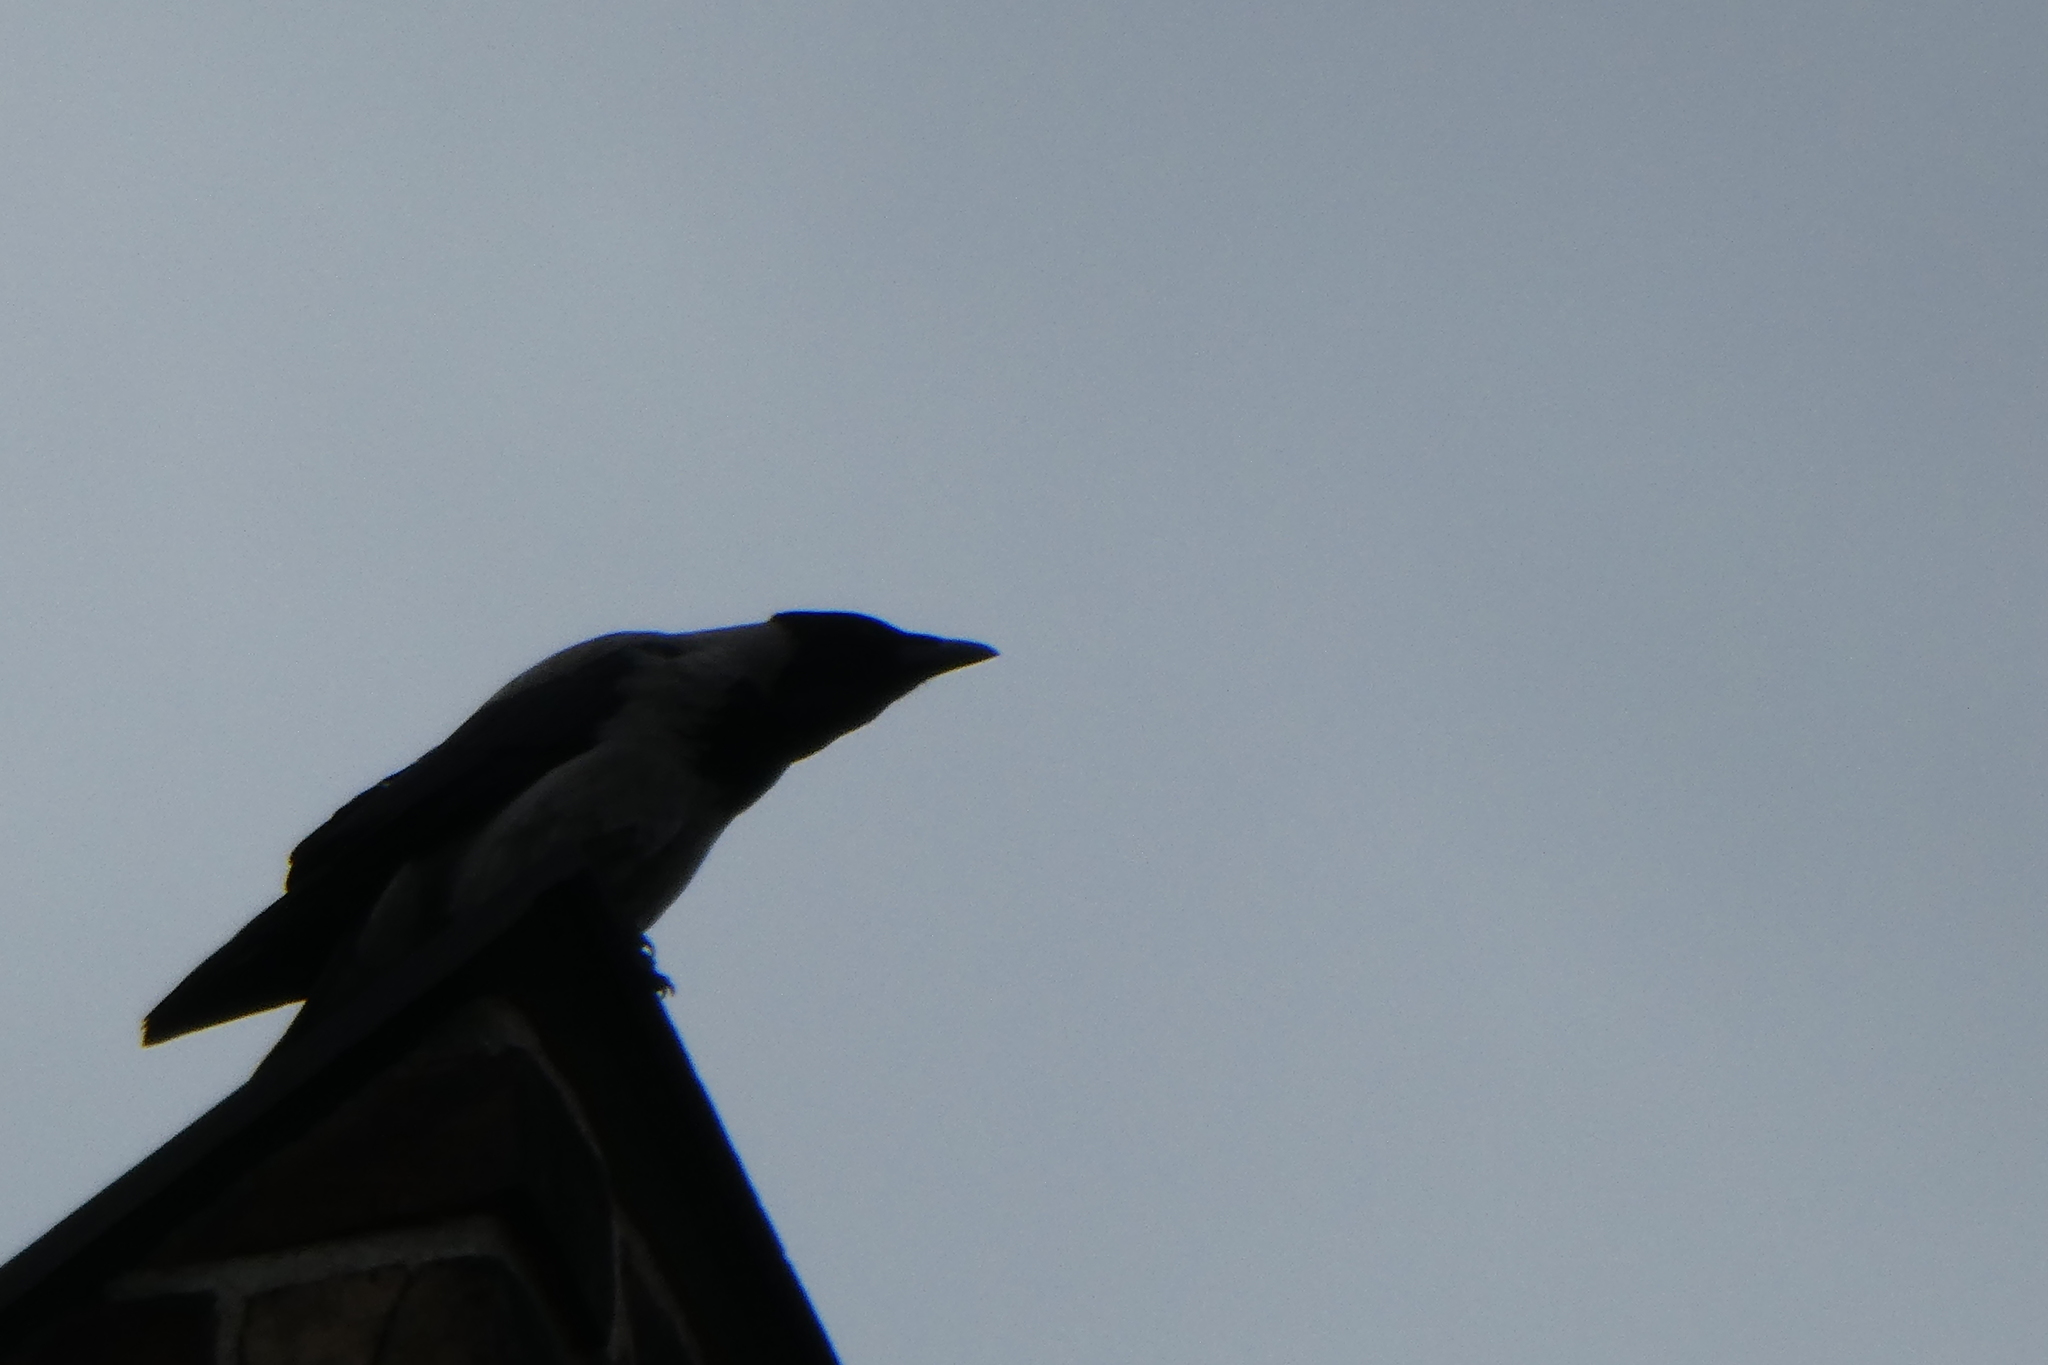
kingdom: Animalia
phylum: Chordata
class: Aves
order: Passeriformes
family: Corvidae
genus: Corvus
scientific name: Corvus cornix
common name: Hooded crow
